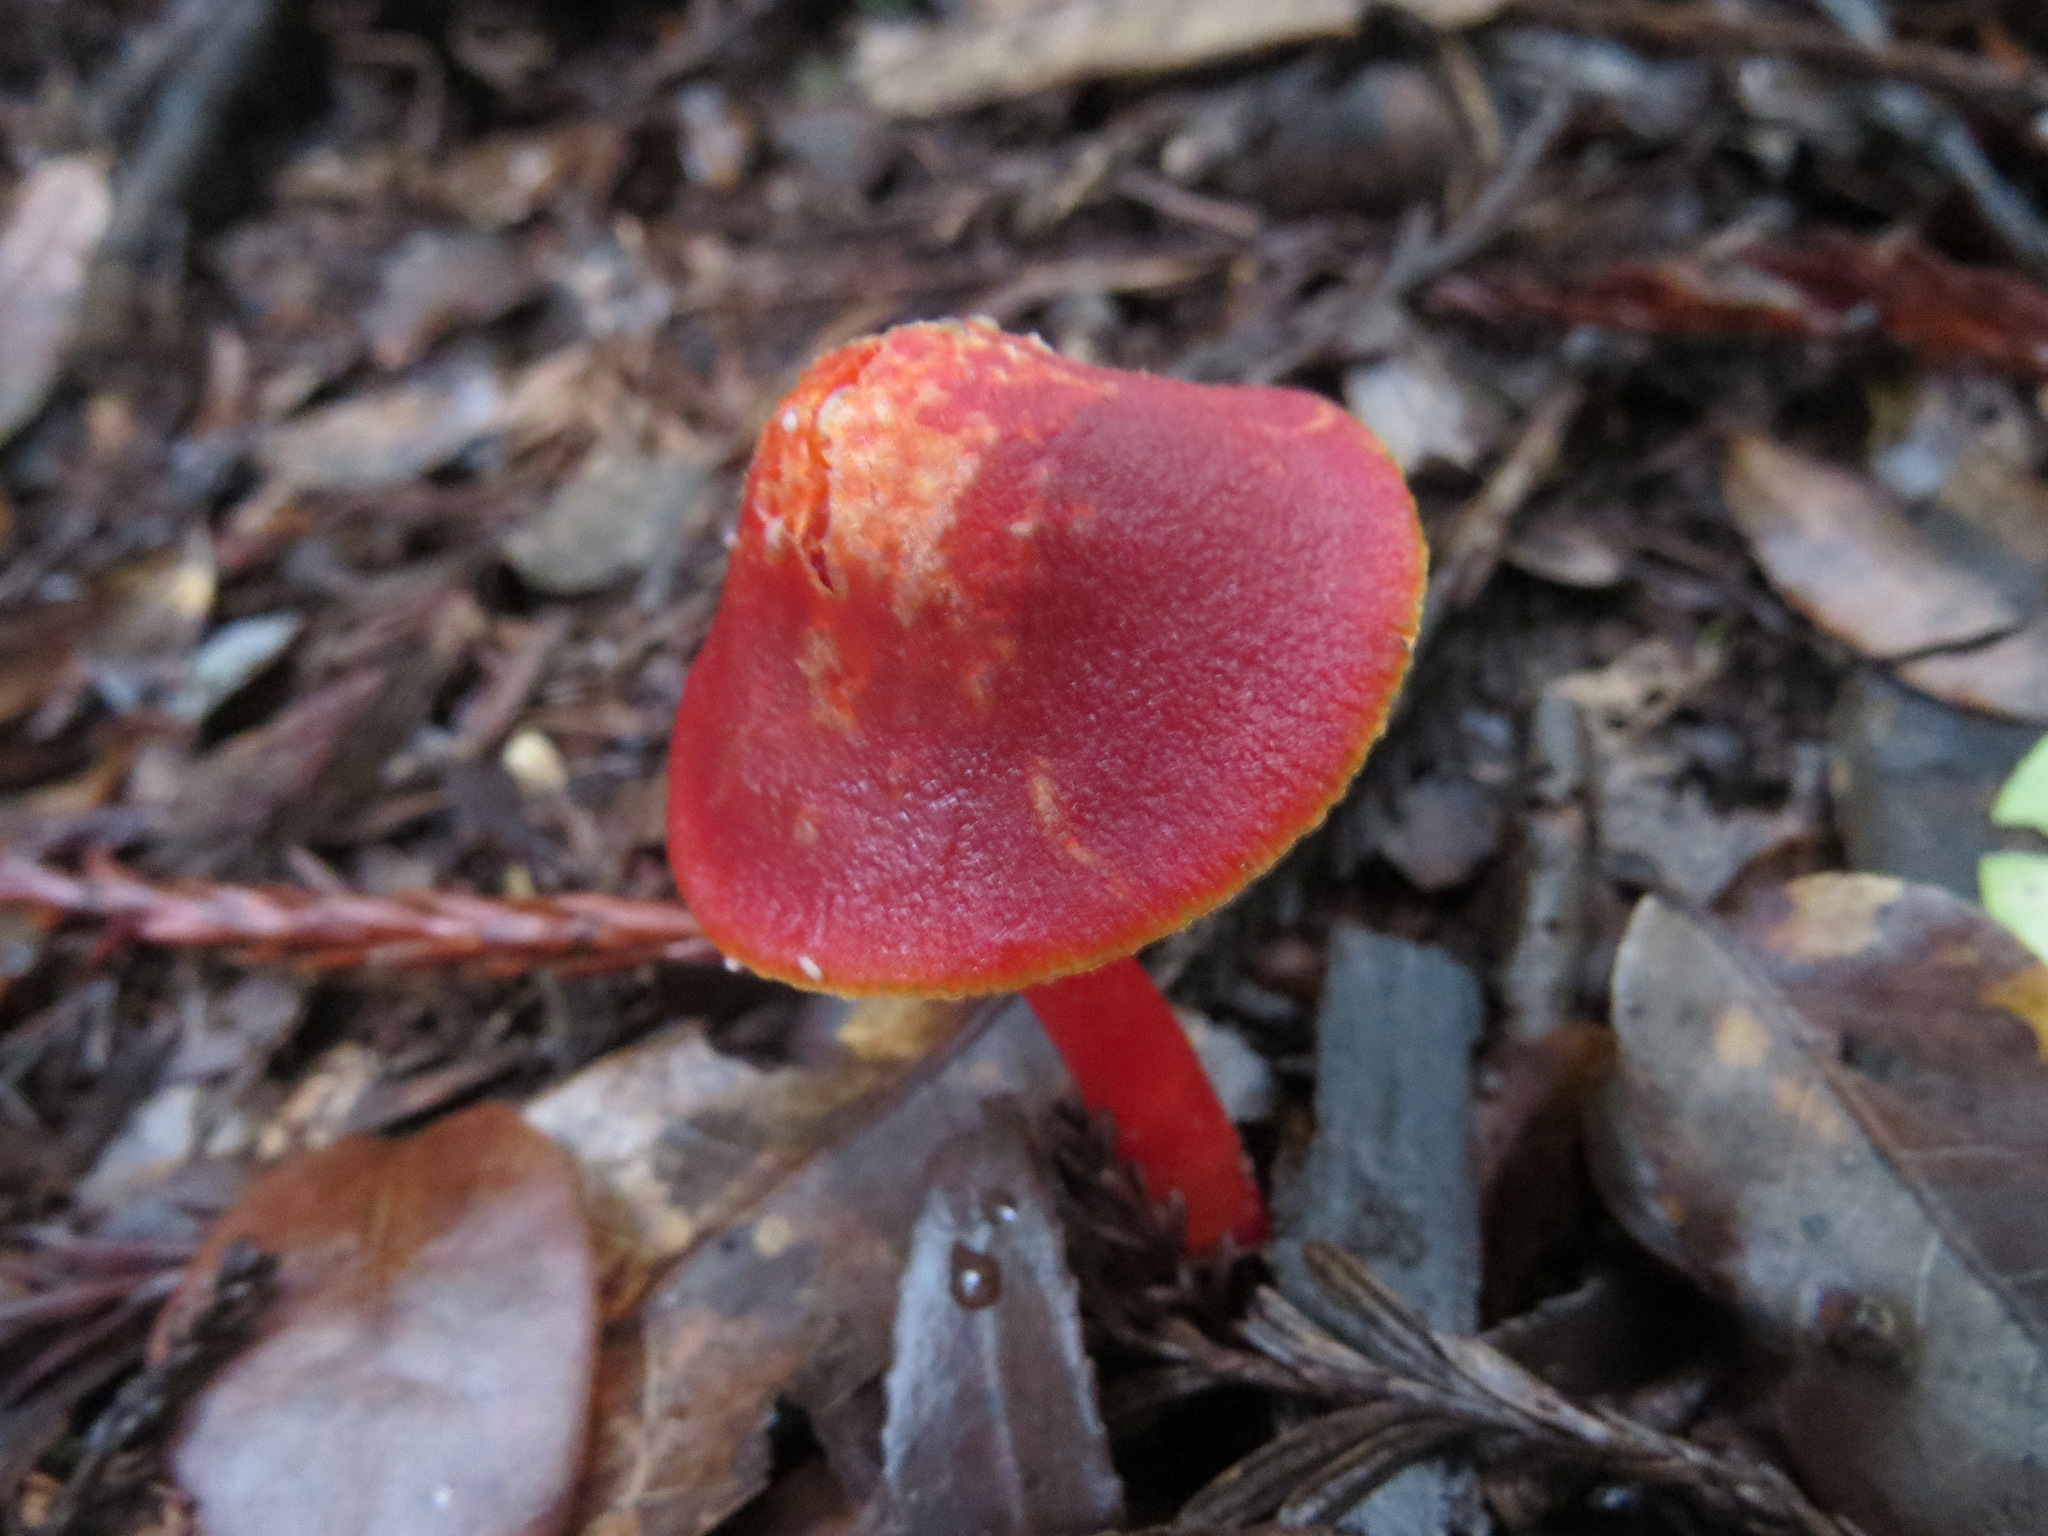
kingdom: Fungi
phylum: Basidiomycota
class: Agaricomycetes
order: Agaricales
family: Hygrophoraceae
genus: Hygrocybe
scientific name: Hygrocybe coccinea
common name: Scarlet hood
